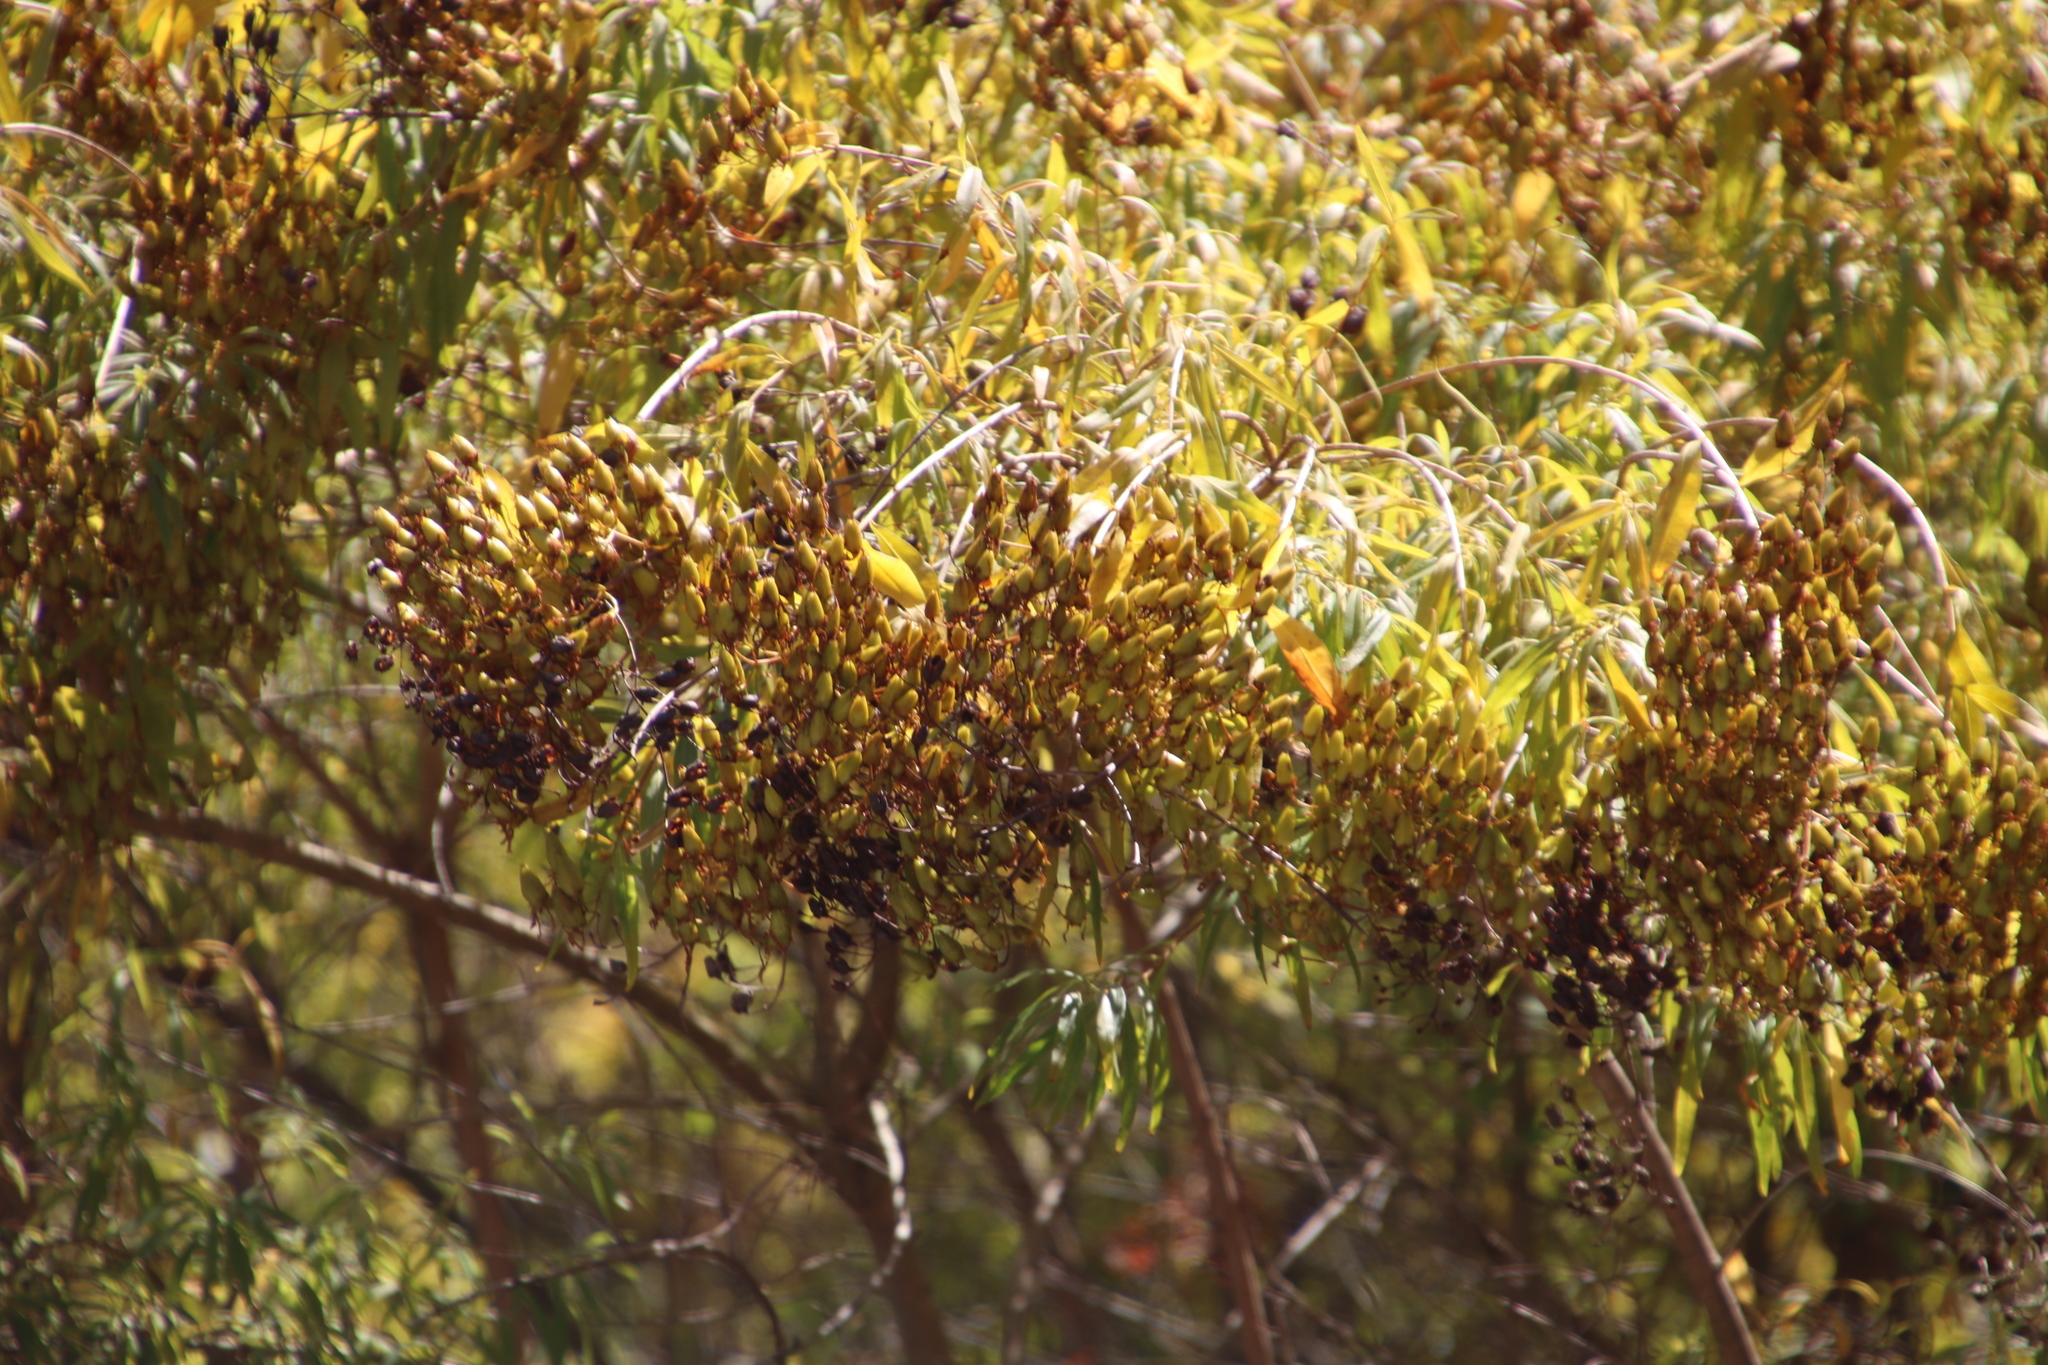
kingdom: Plantae
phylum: Tracheophyta
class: Magnoliopsida
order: Malpighiales
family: Hypericaceae
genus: Hypericum
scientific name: Hypericum canariense
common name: Canary island st. johnswort
